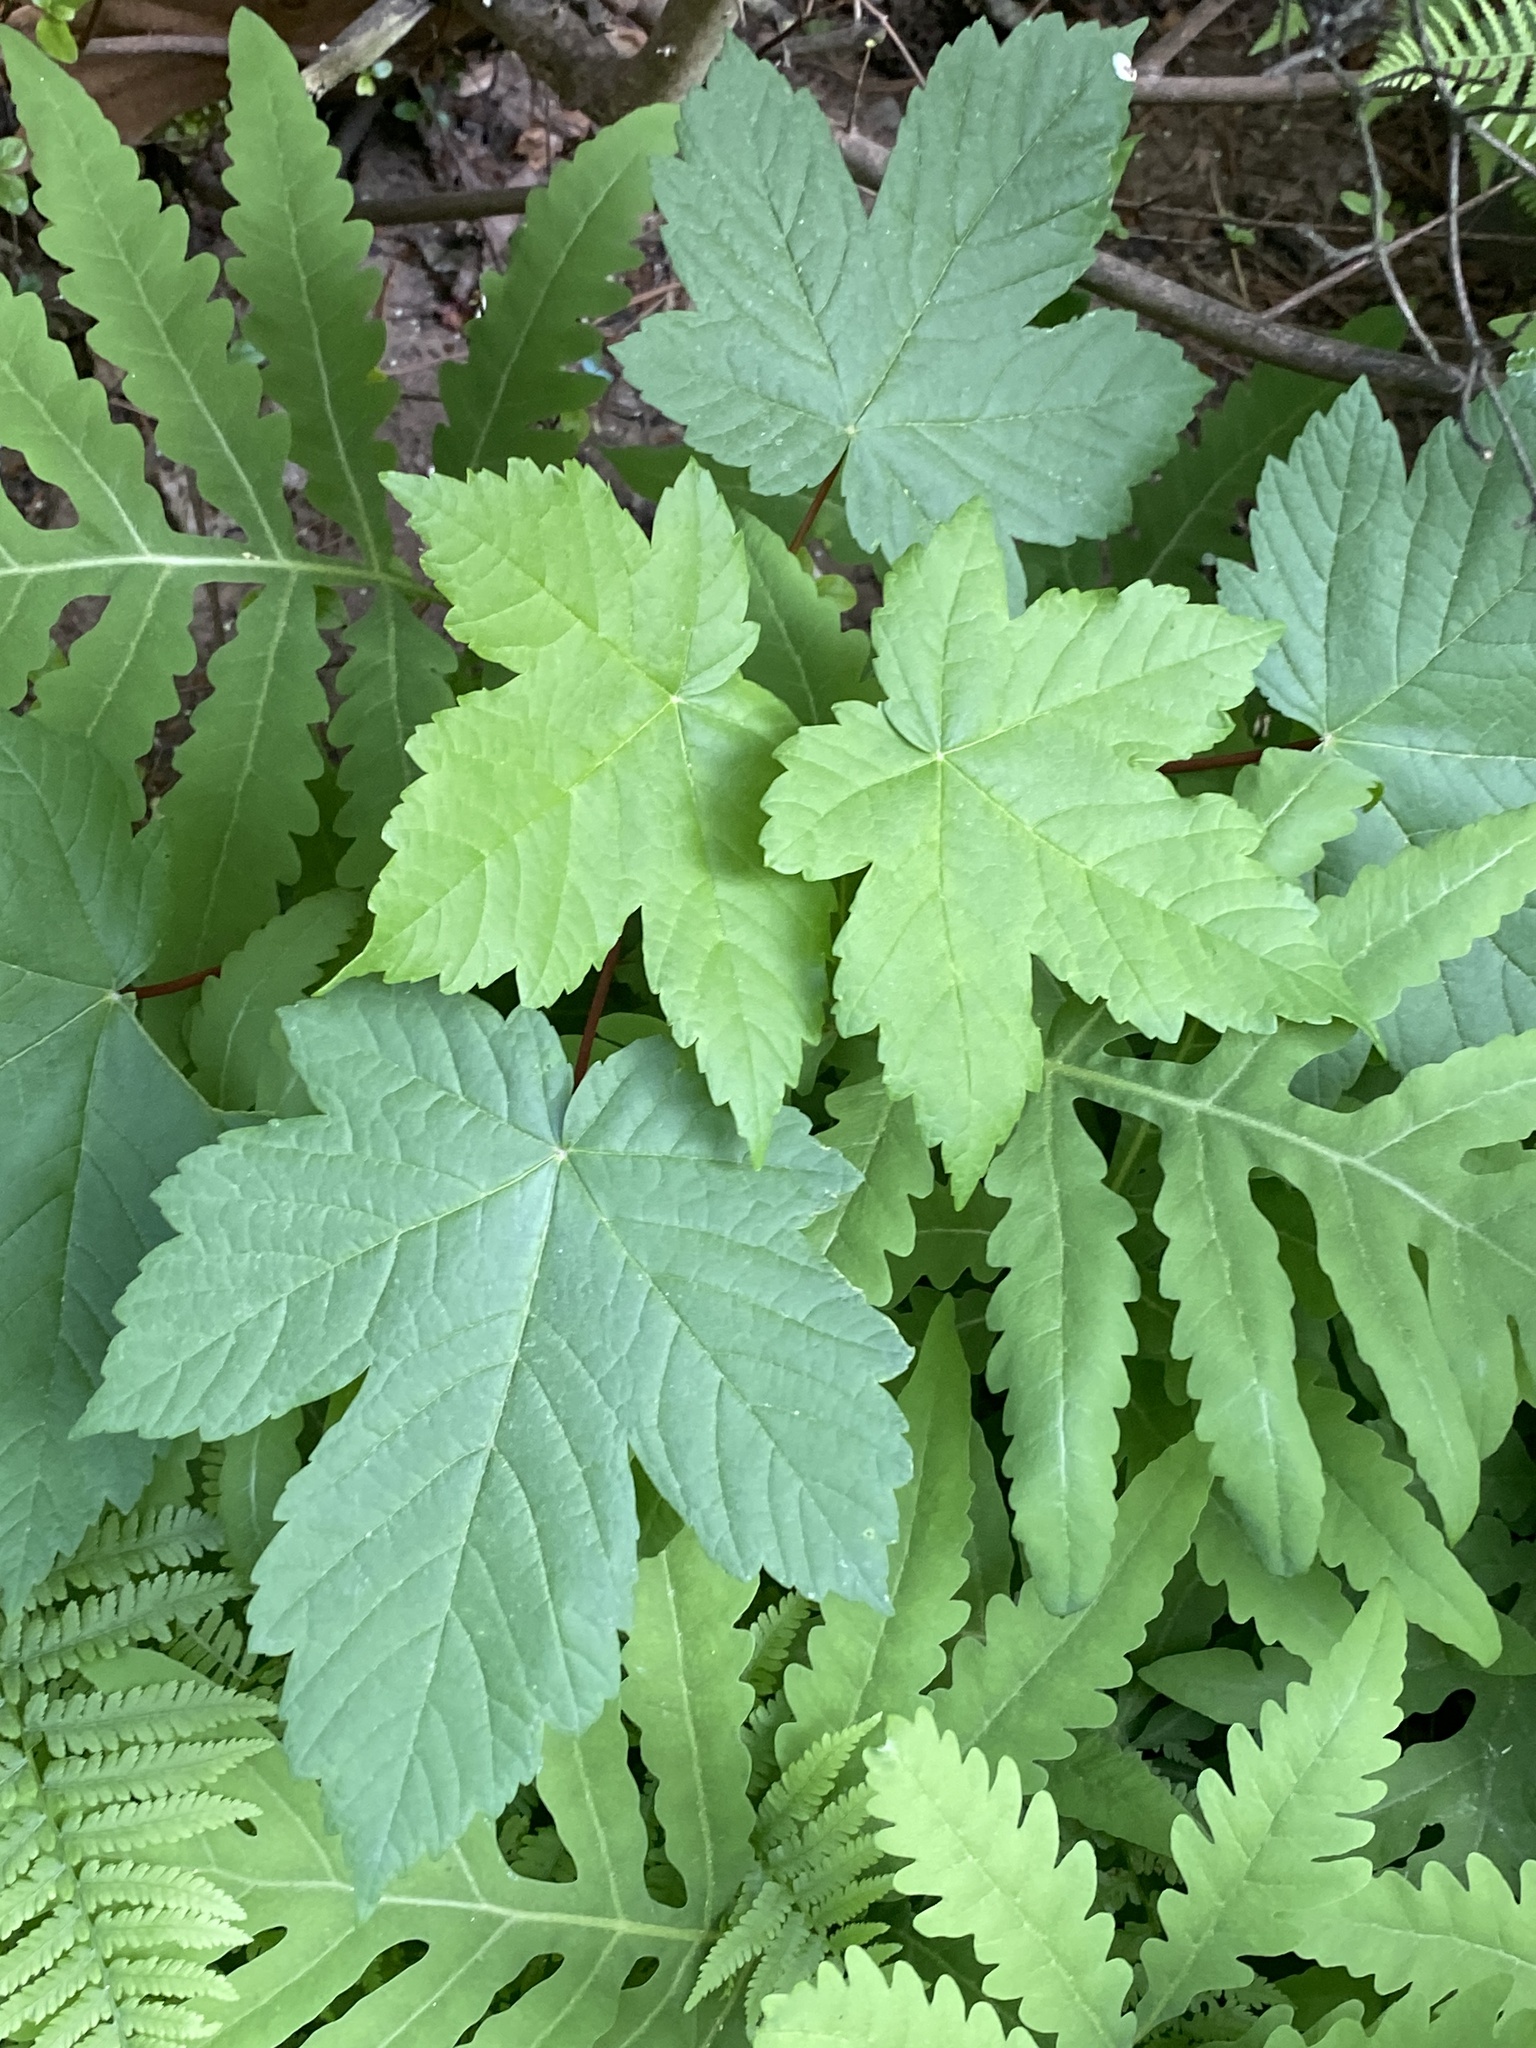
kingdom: Plantae
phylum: Tracheophyta
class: Magnoliopsida
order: Sapindales
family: Sapindaceae
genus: Acer
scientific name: Acer pseudoplatanus
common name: Sycamore
